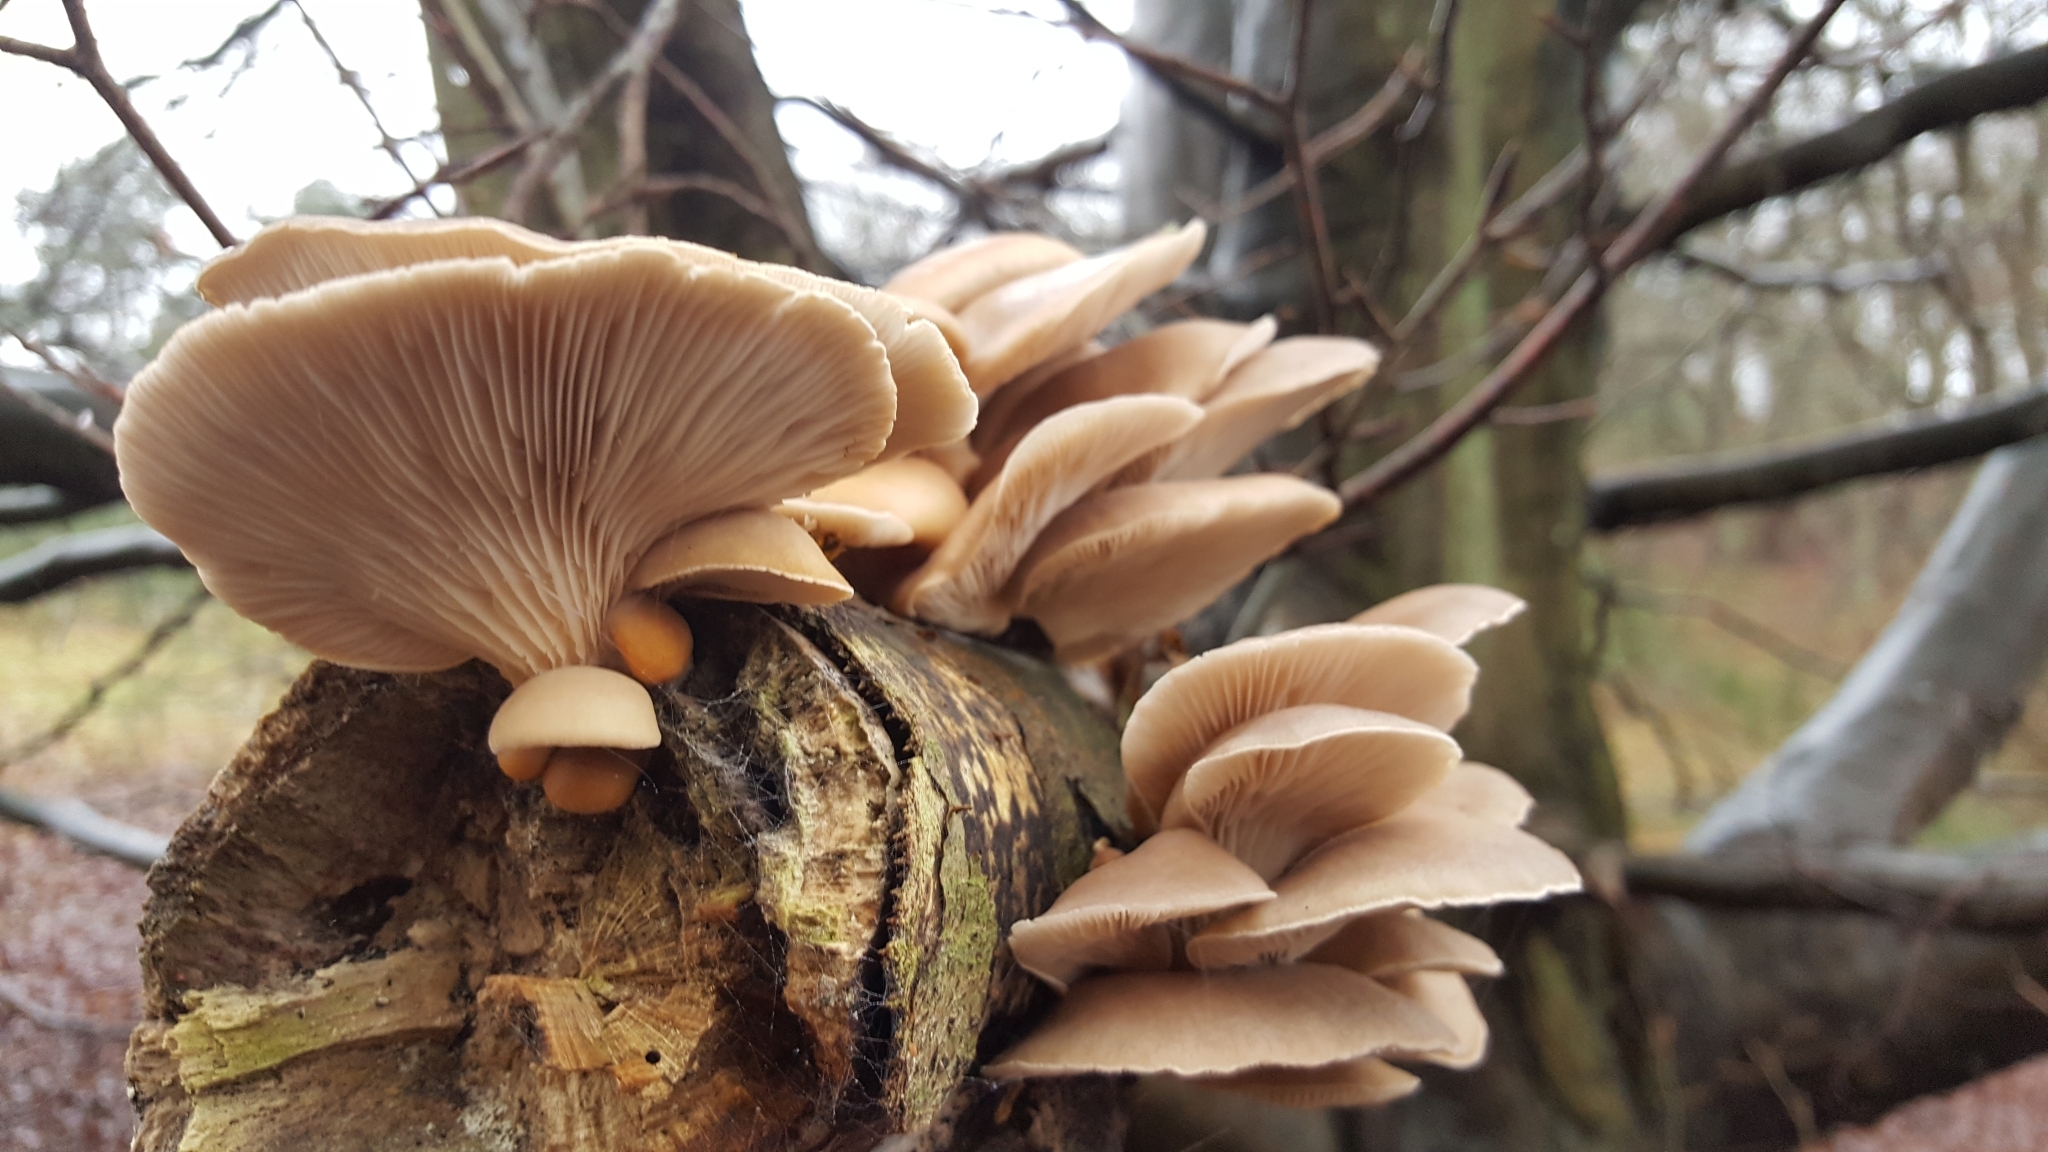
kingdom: Fungi
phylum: Basidiomycota
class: Agaricomycetes
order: Agaricales
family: Pleurotaceae
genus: Pleurotus
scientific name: Pleurotus ostreatus
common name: Oyster mushroom
